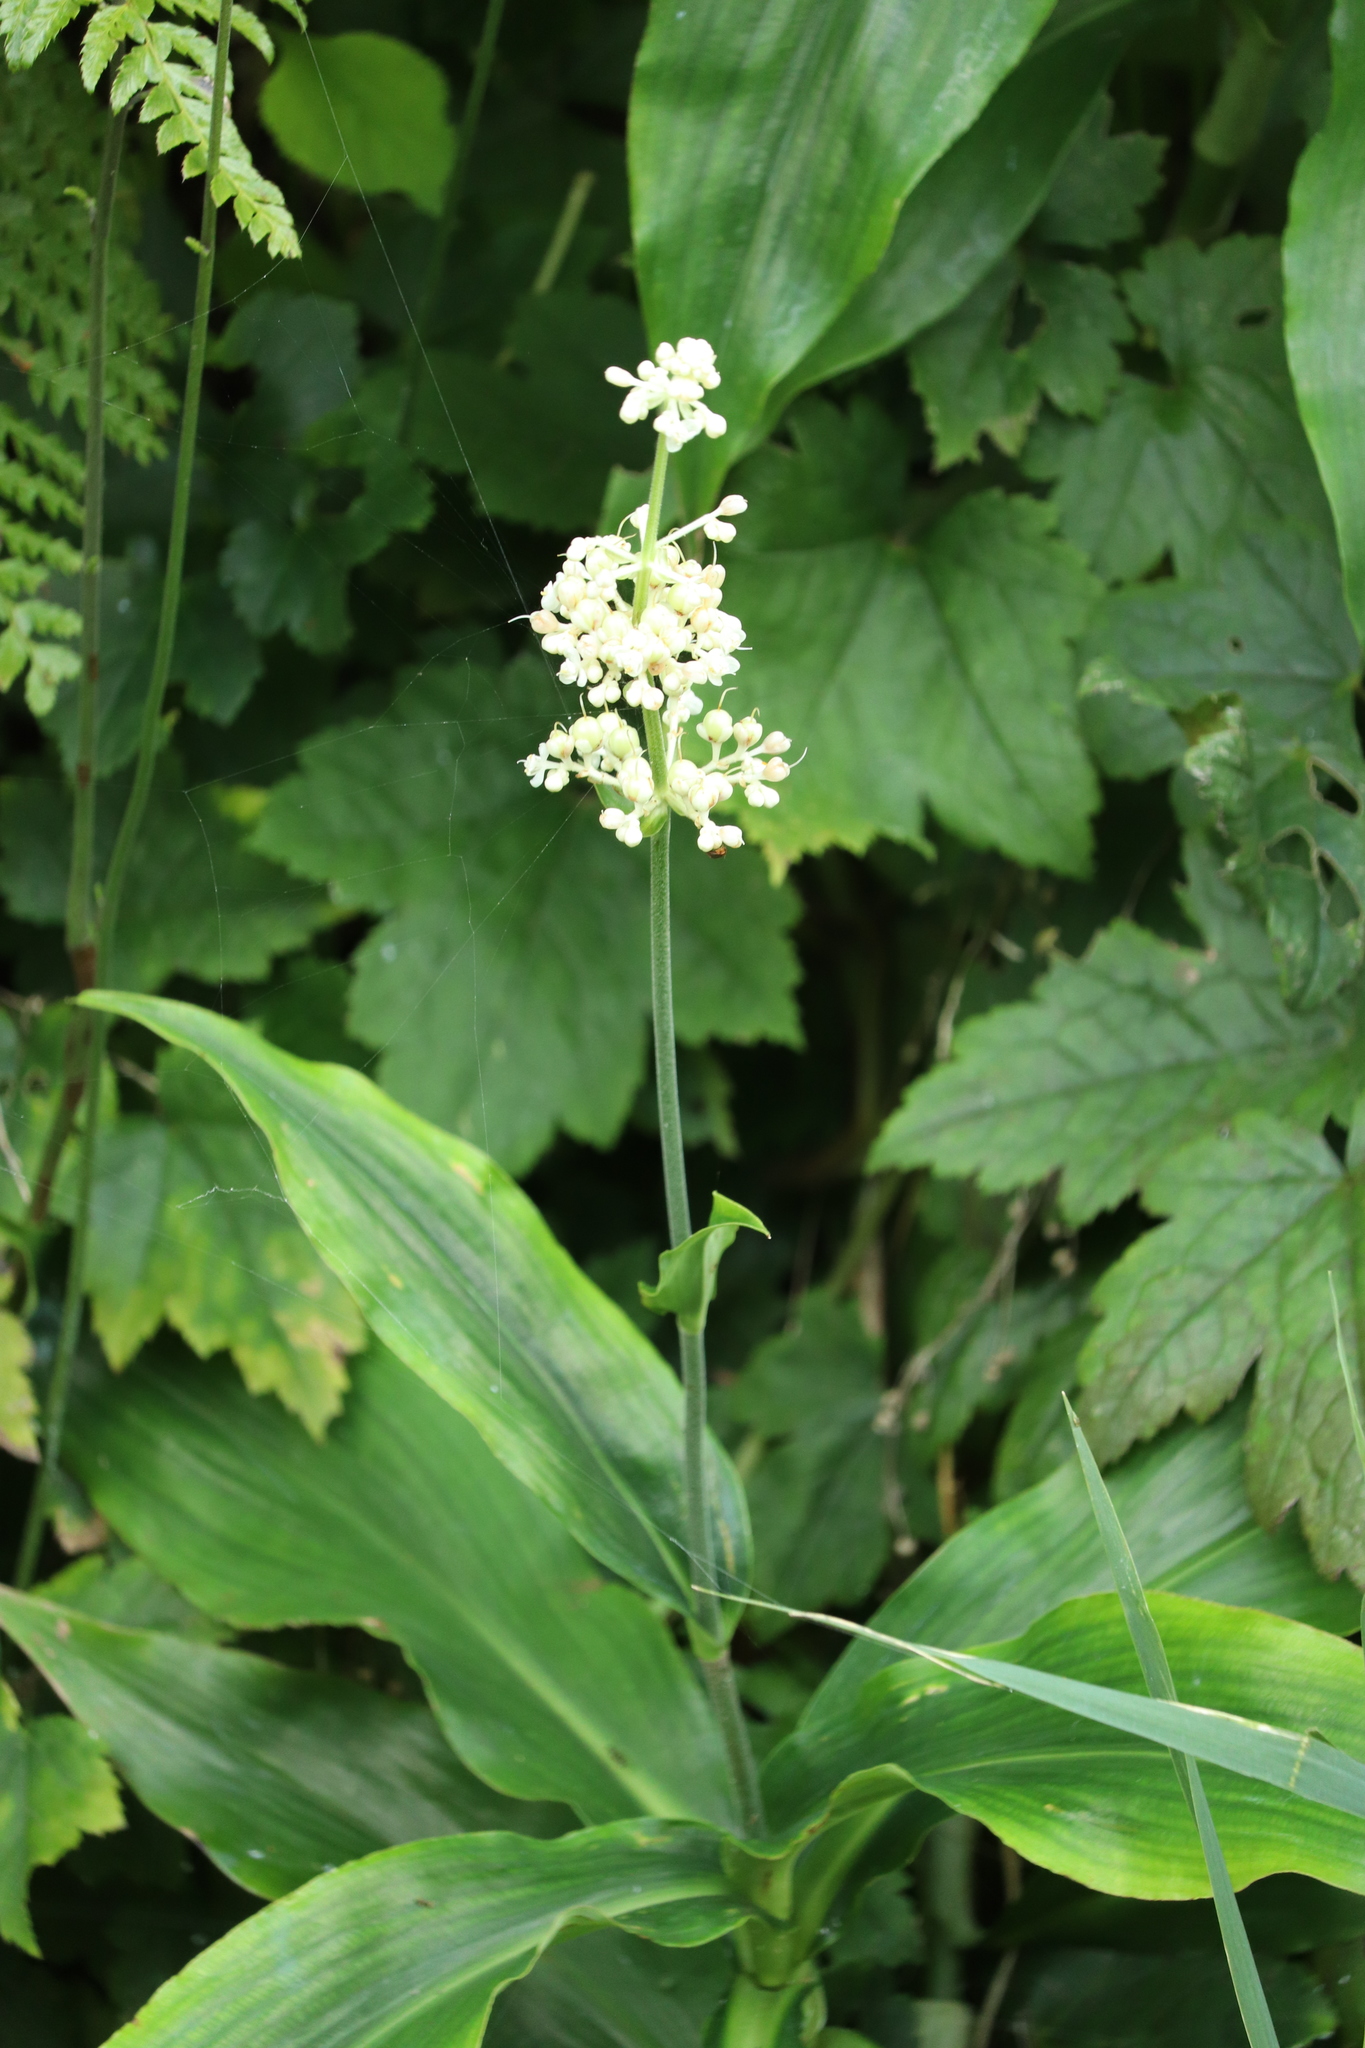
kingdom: Plantae
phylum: Tracheophyta
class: Liliopsida
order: Commelinales
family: Commelinaceae
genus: Pollia
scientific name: Pollia japonica
